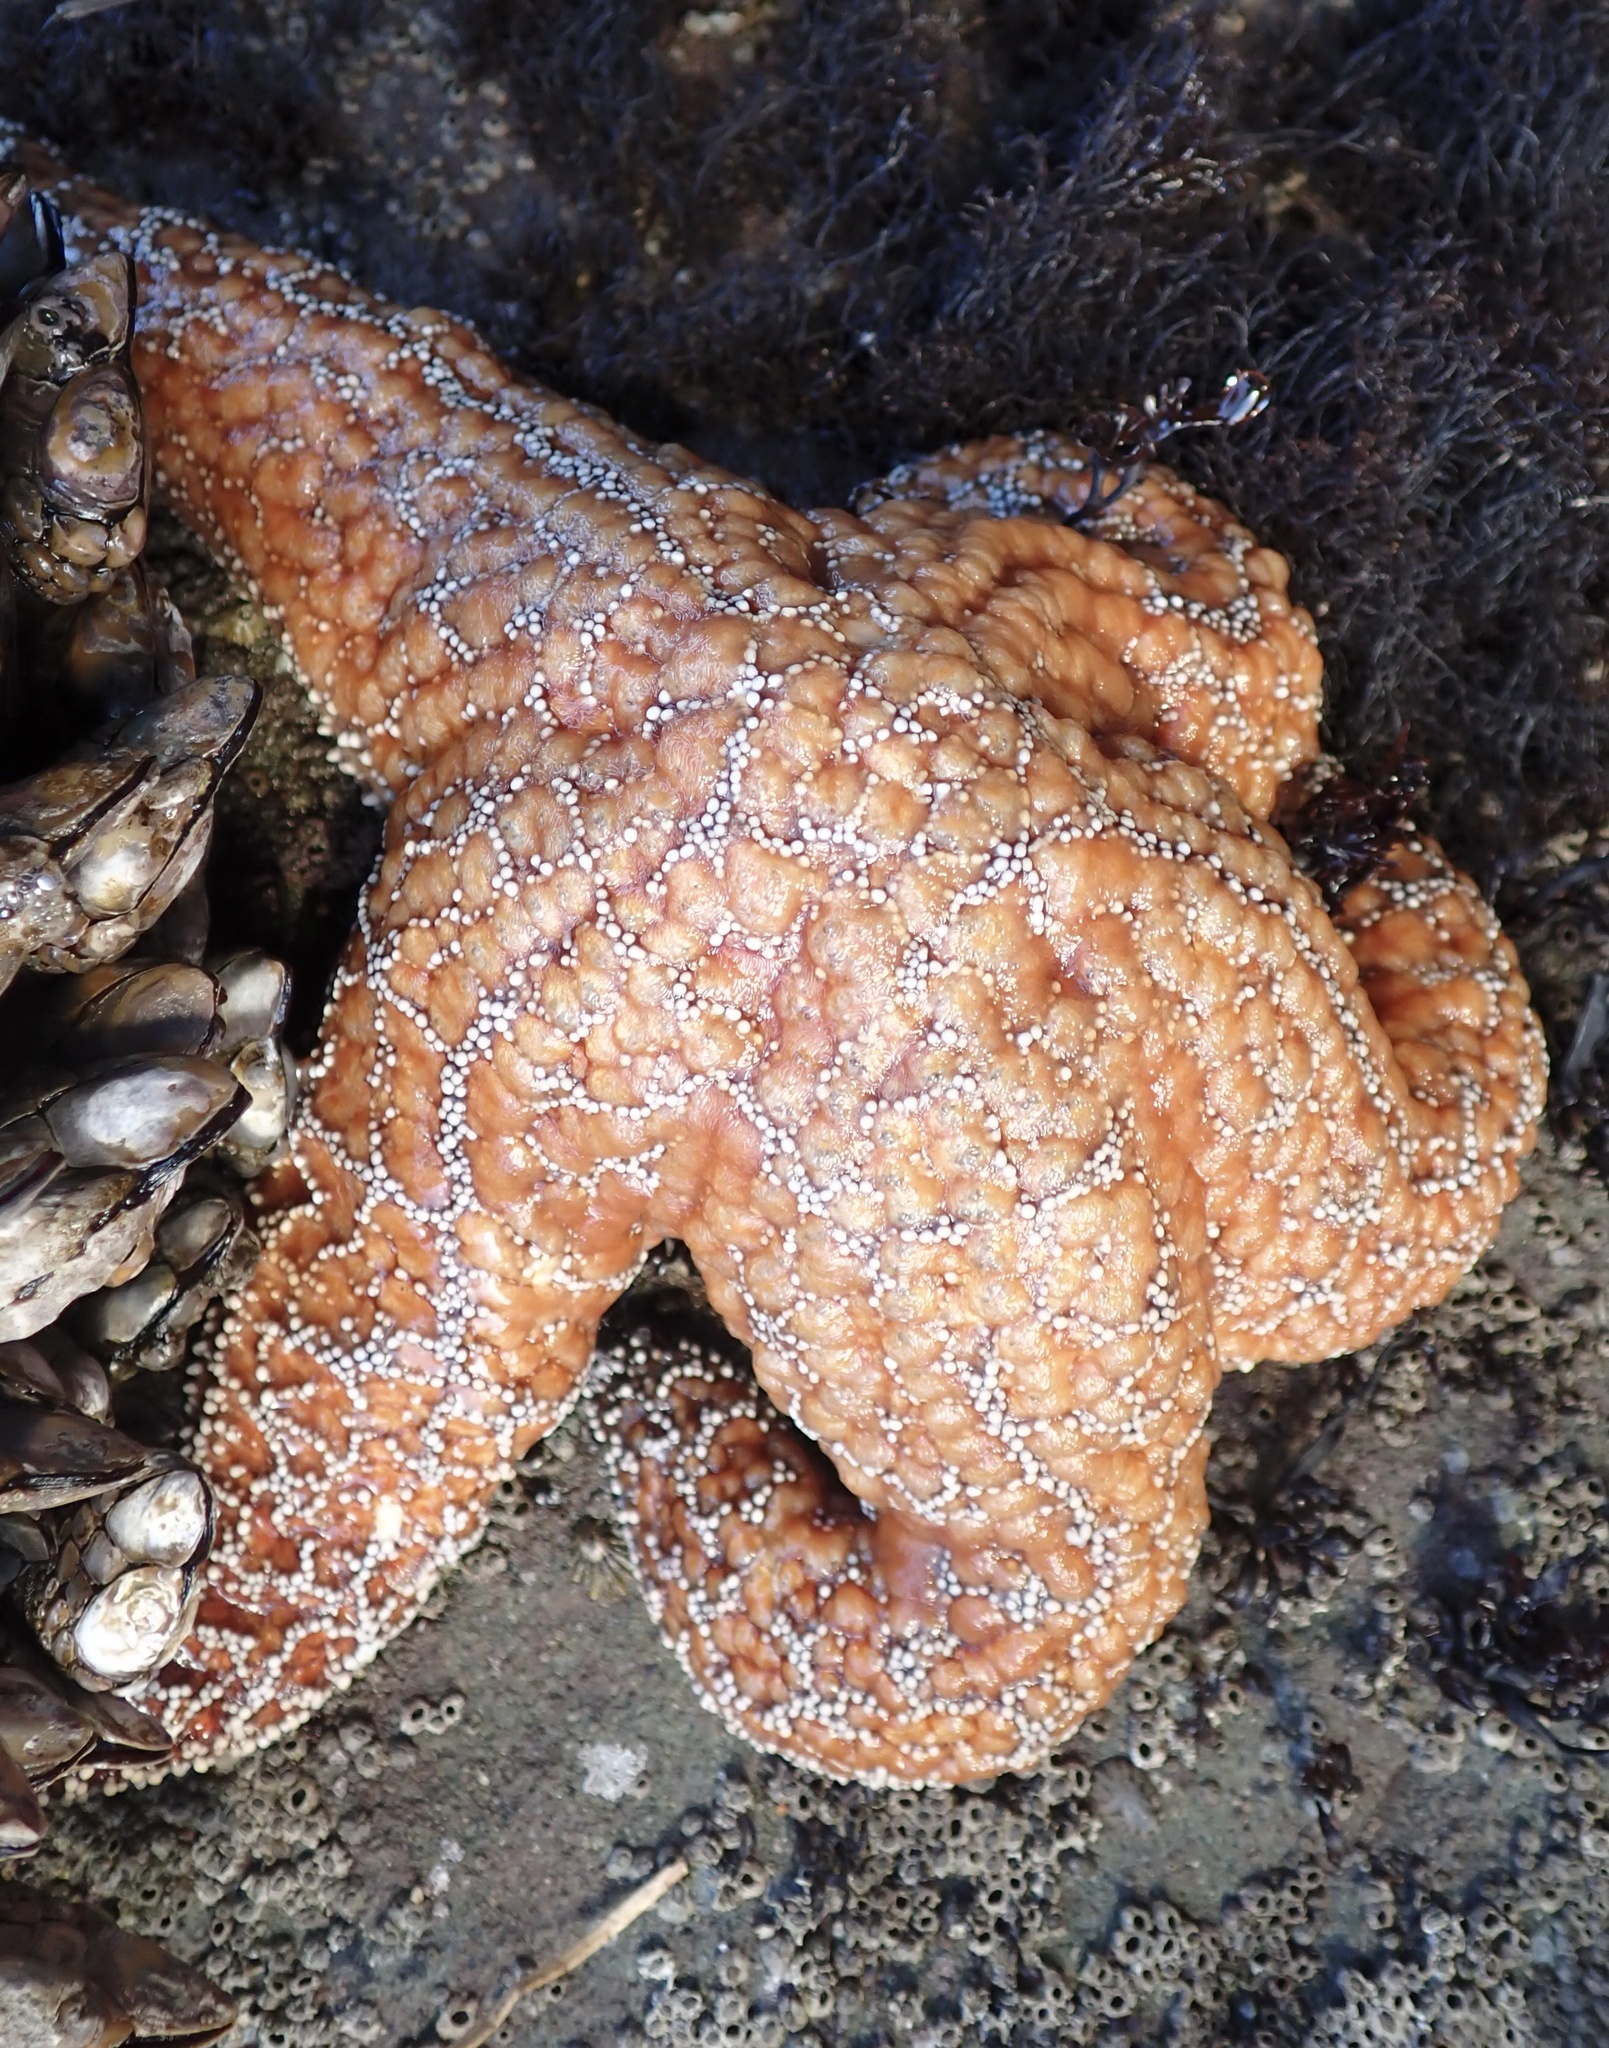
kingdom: Animalia
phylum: Echinodermata
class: Asteroidea
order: Forcipulatida
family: Asteriidae
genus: Pisaster
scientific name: Pisaster ochraceus
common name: Ochre stars
